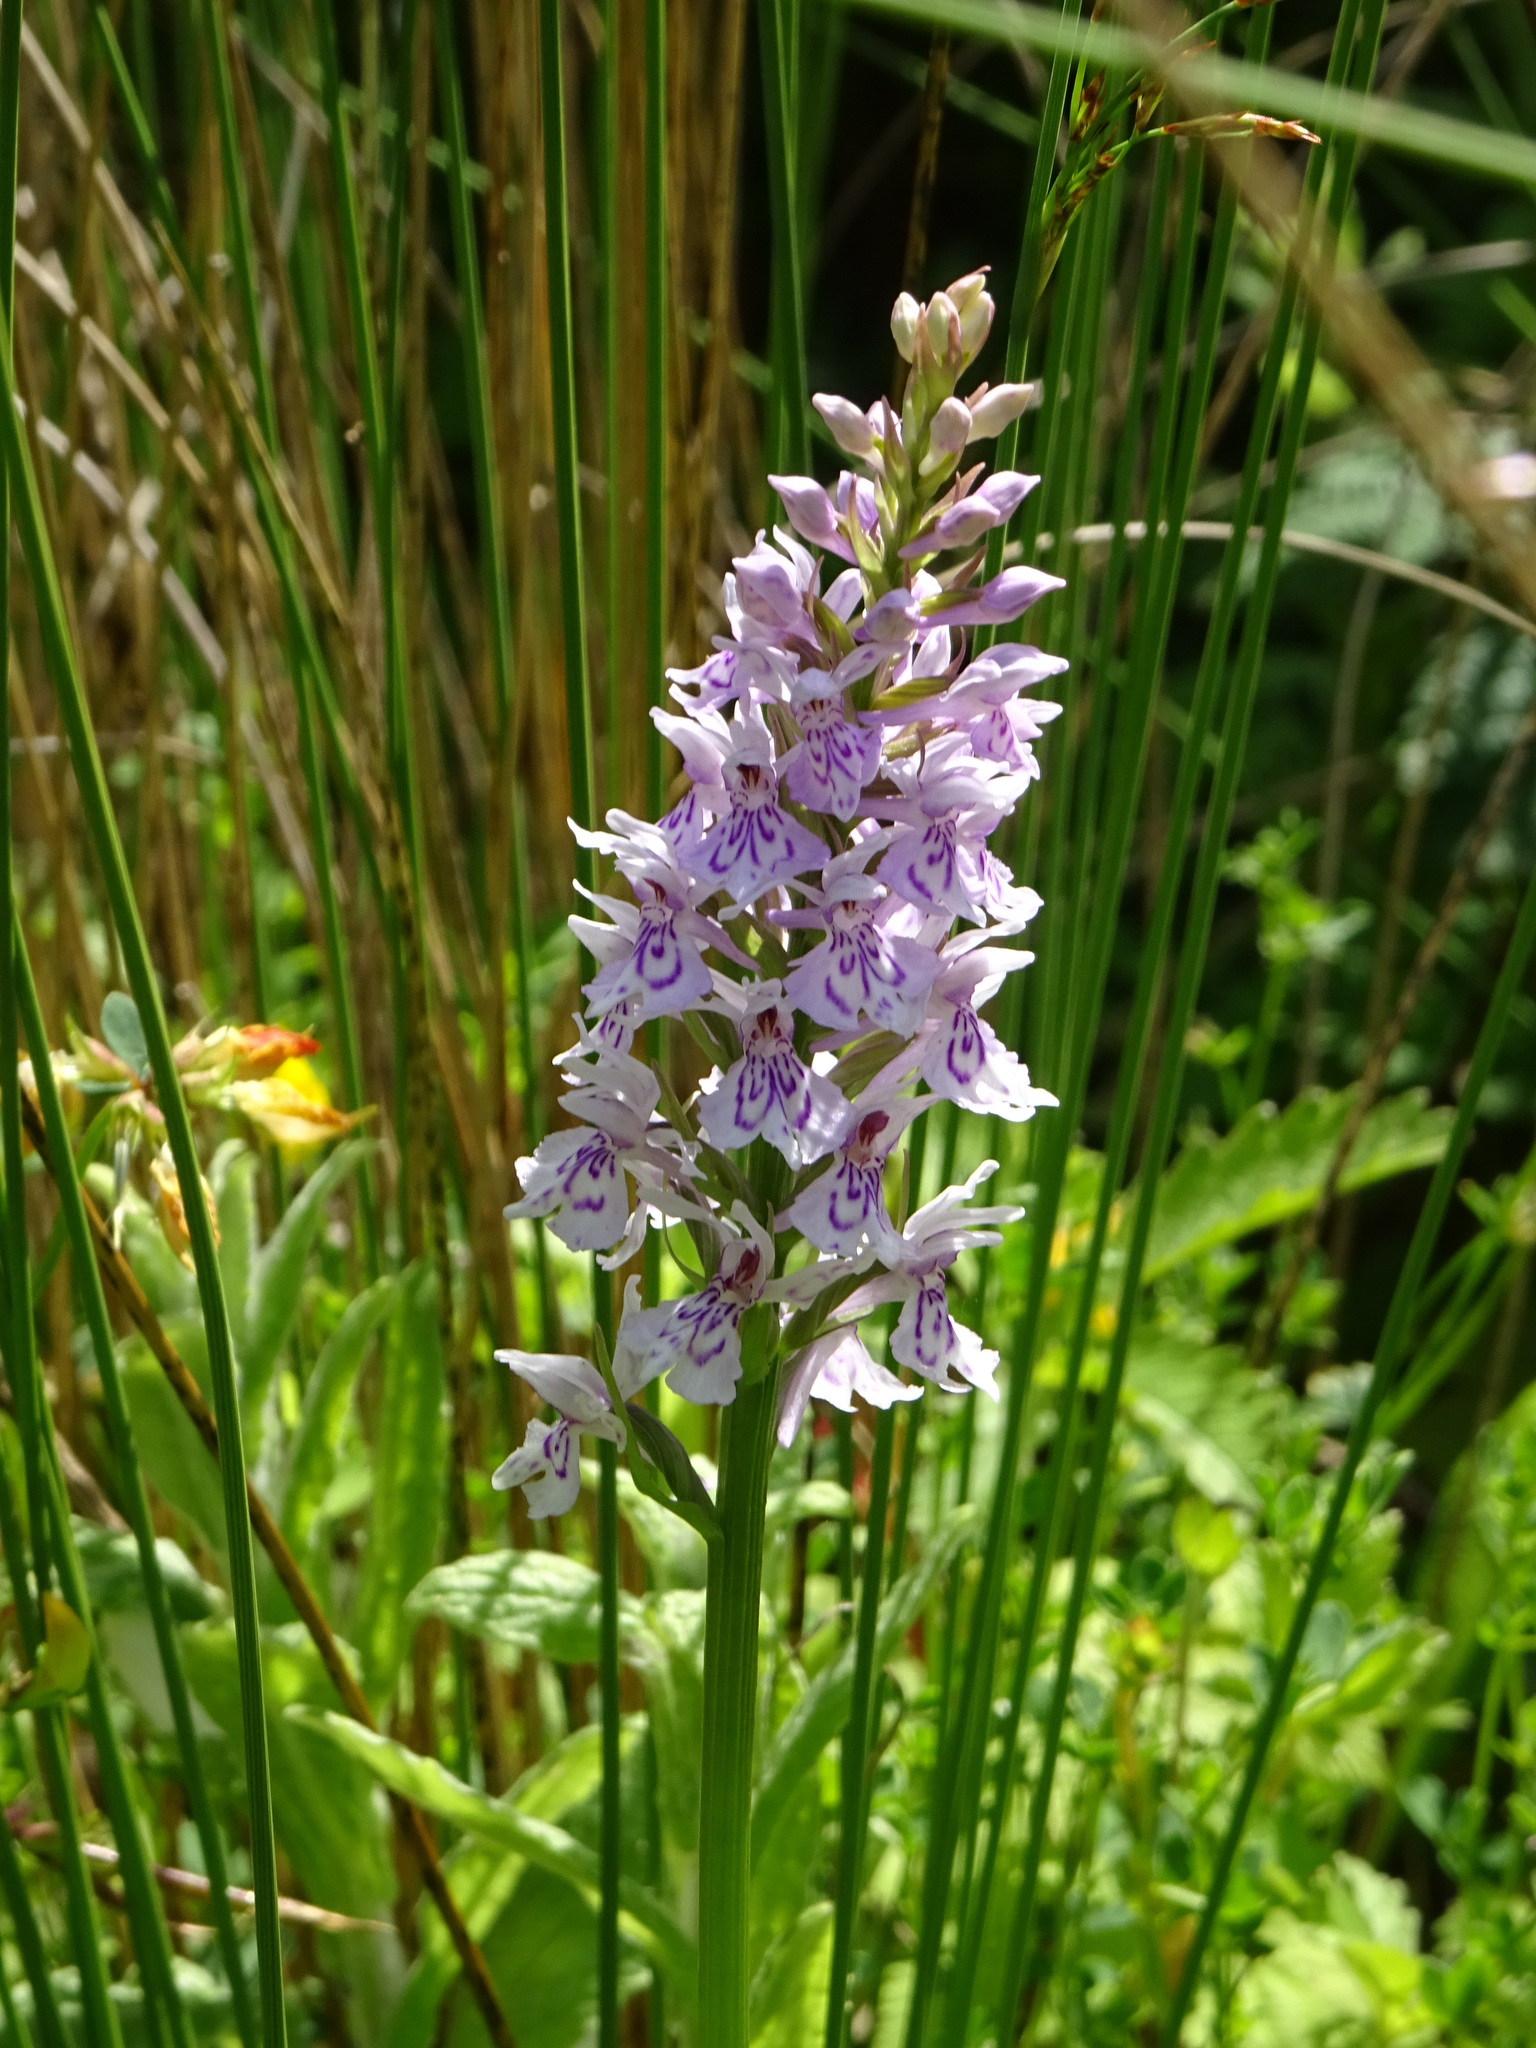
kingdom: Plantae
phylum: Tracheophyta
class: Liliopsida
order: Asparagales
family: Orchidaceae
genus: Dactylorhiza
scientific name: Dactylorhiza maculata
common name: Heath spotted-orchid
